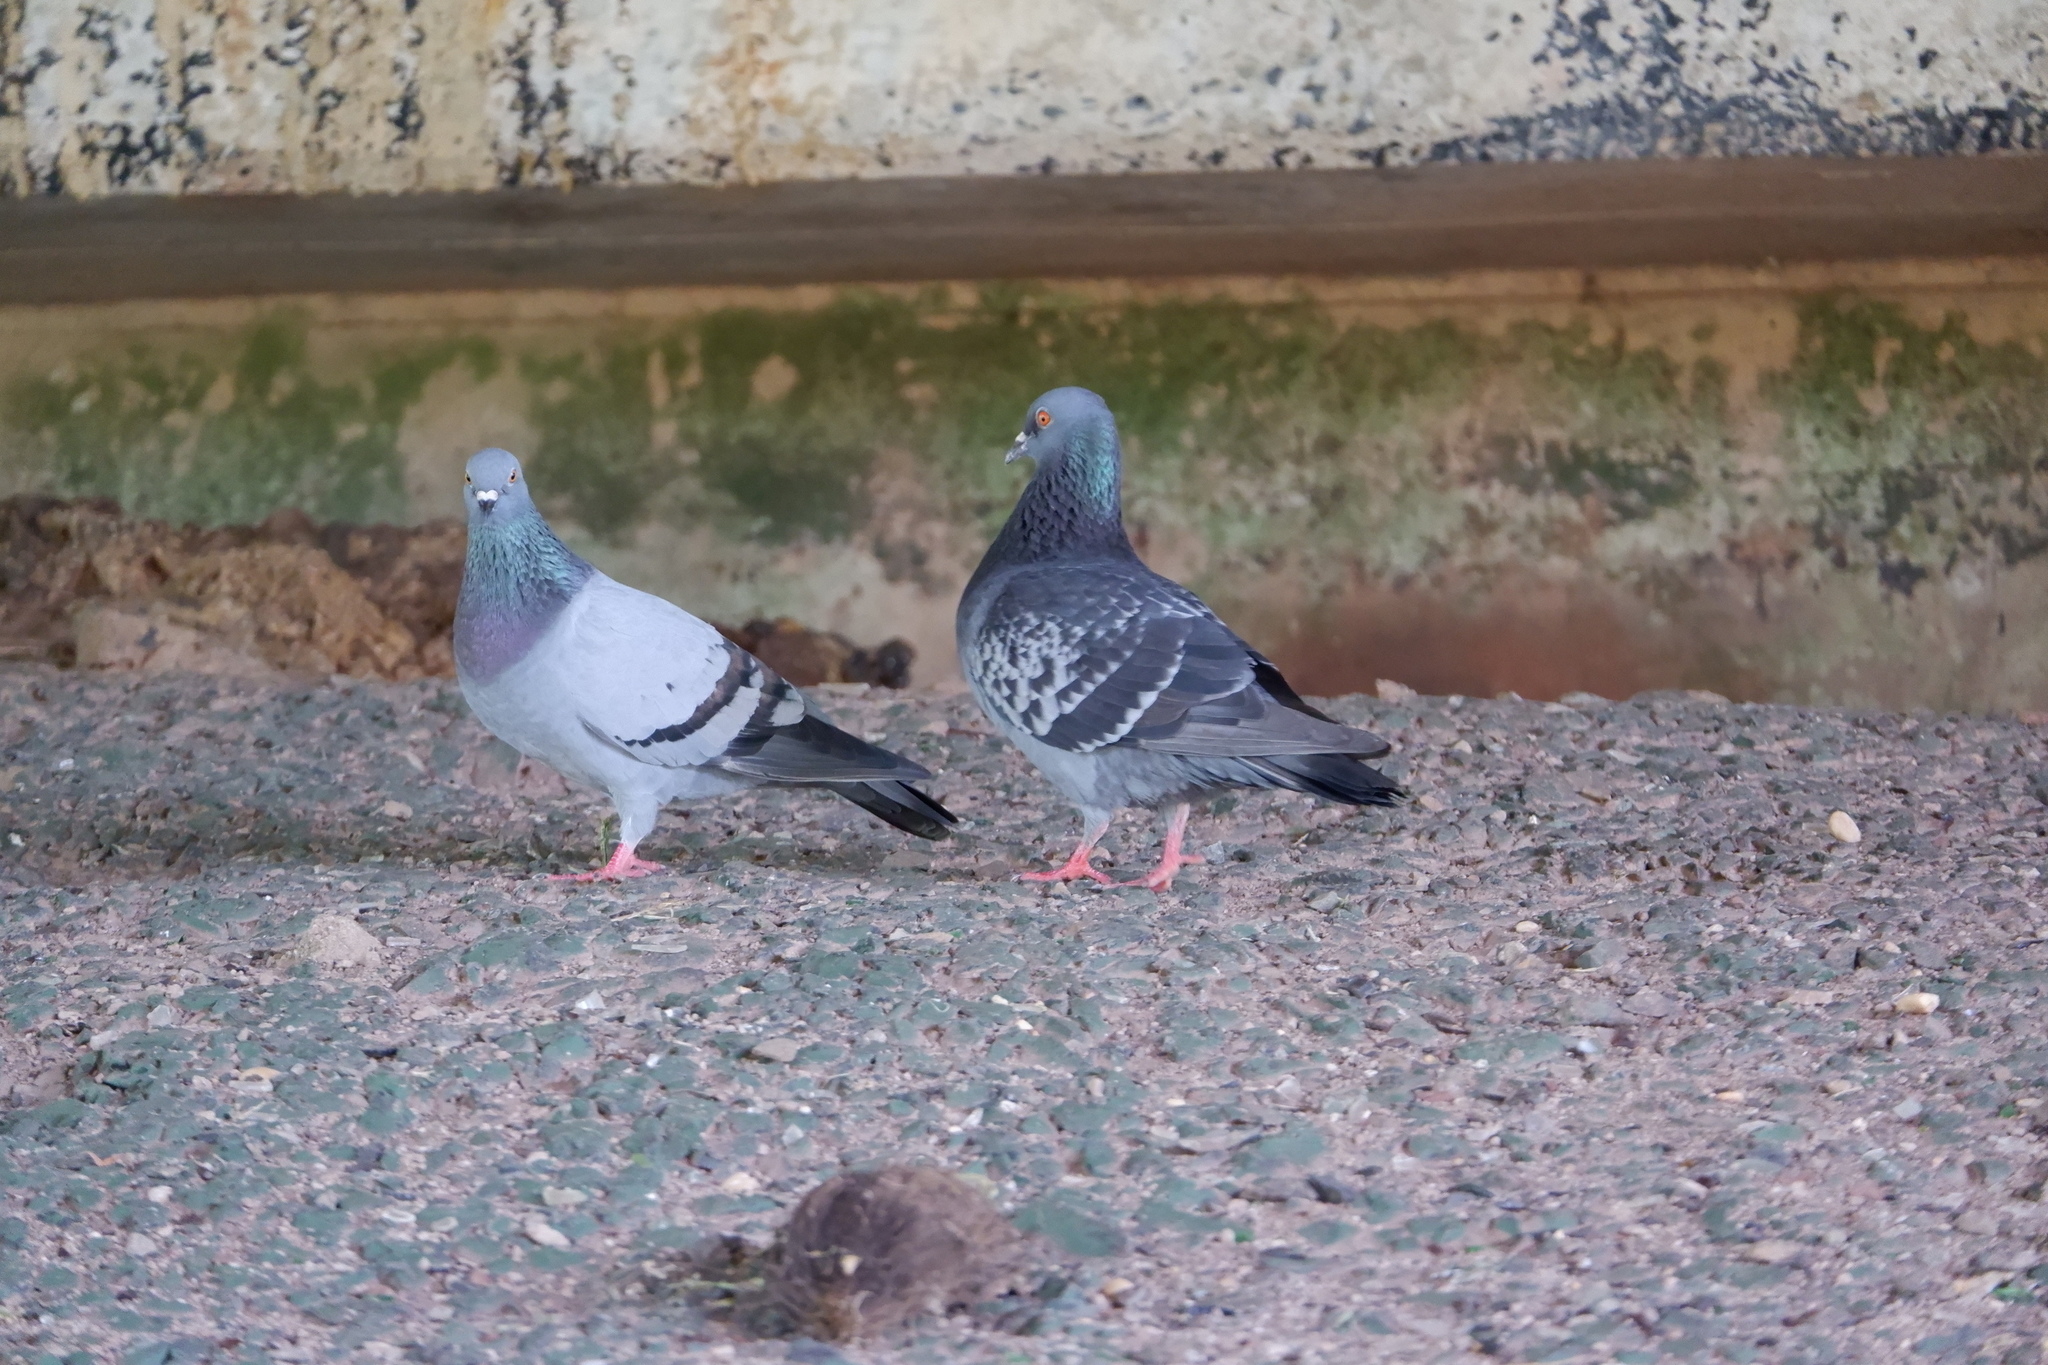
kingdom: Animalia
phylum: Chordata
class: Aves
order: Columbiformes
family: Columbidae
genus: Columba
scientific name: Columba livia
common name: Rock pigeon
